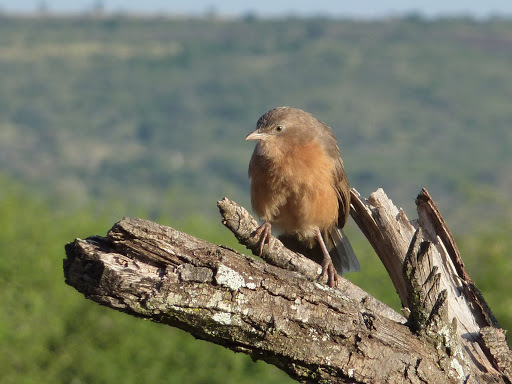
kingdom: Animalia
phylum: Chordata
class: Aves
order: Passeriformes
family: Leiothrichidae
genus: Turdoides
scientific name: Turdoides rubiginosa
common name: Rufous chatterer
